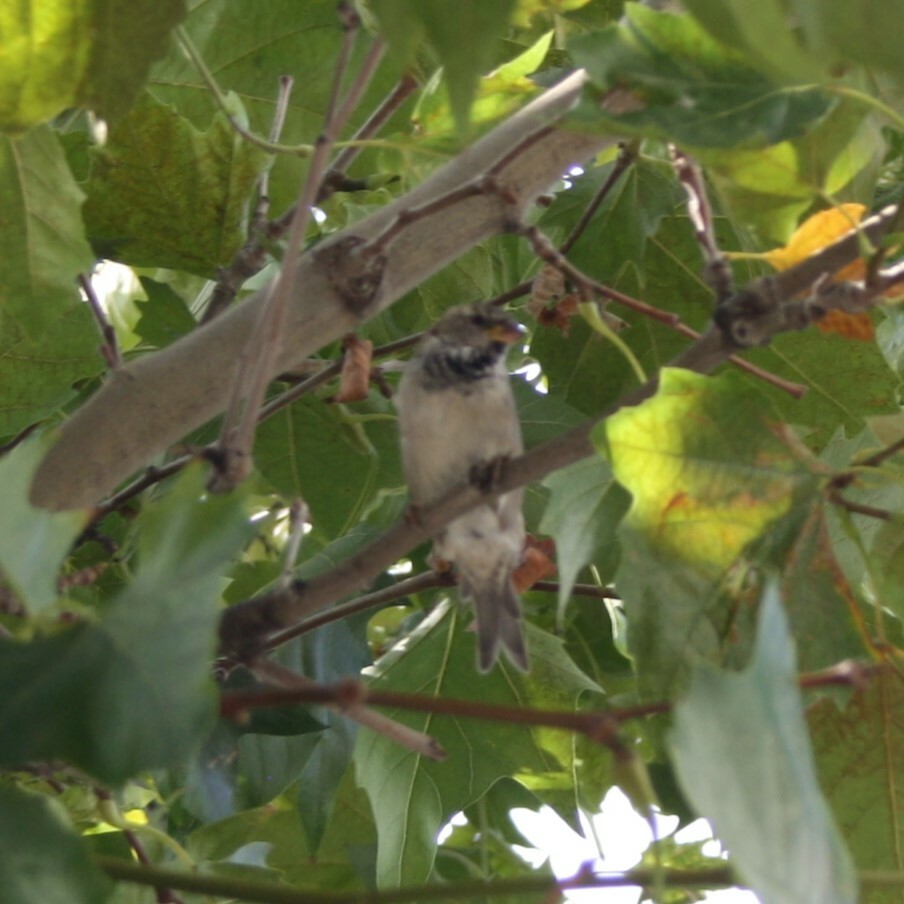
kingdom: Animalia
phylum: Chordata
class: Aves
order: Passeriformes
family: Passeridae
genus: Passer
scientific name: Passer domesticus
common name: House sparrow
